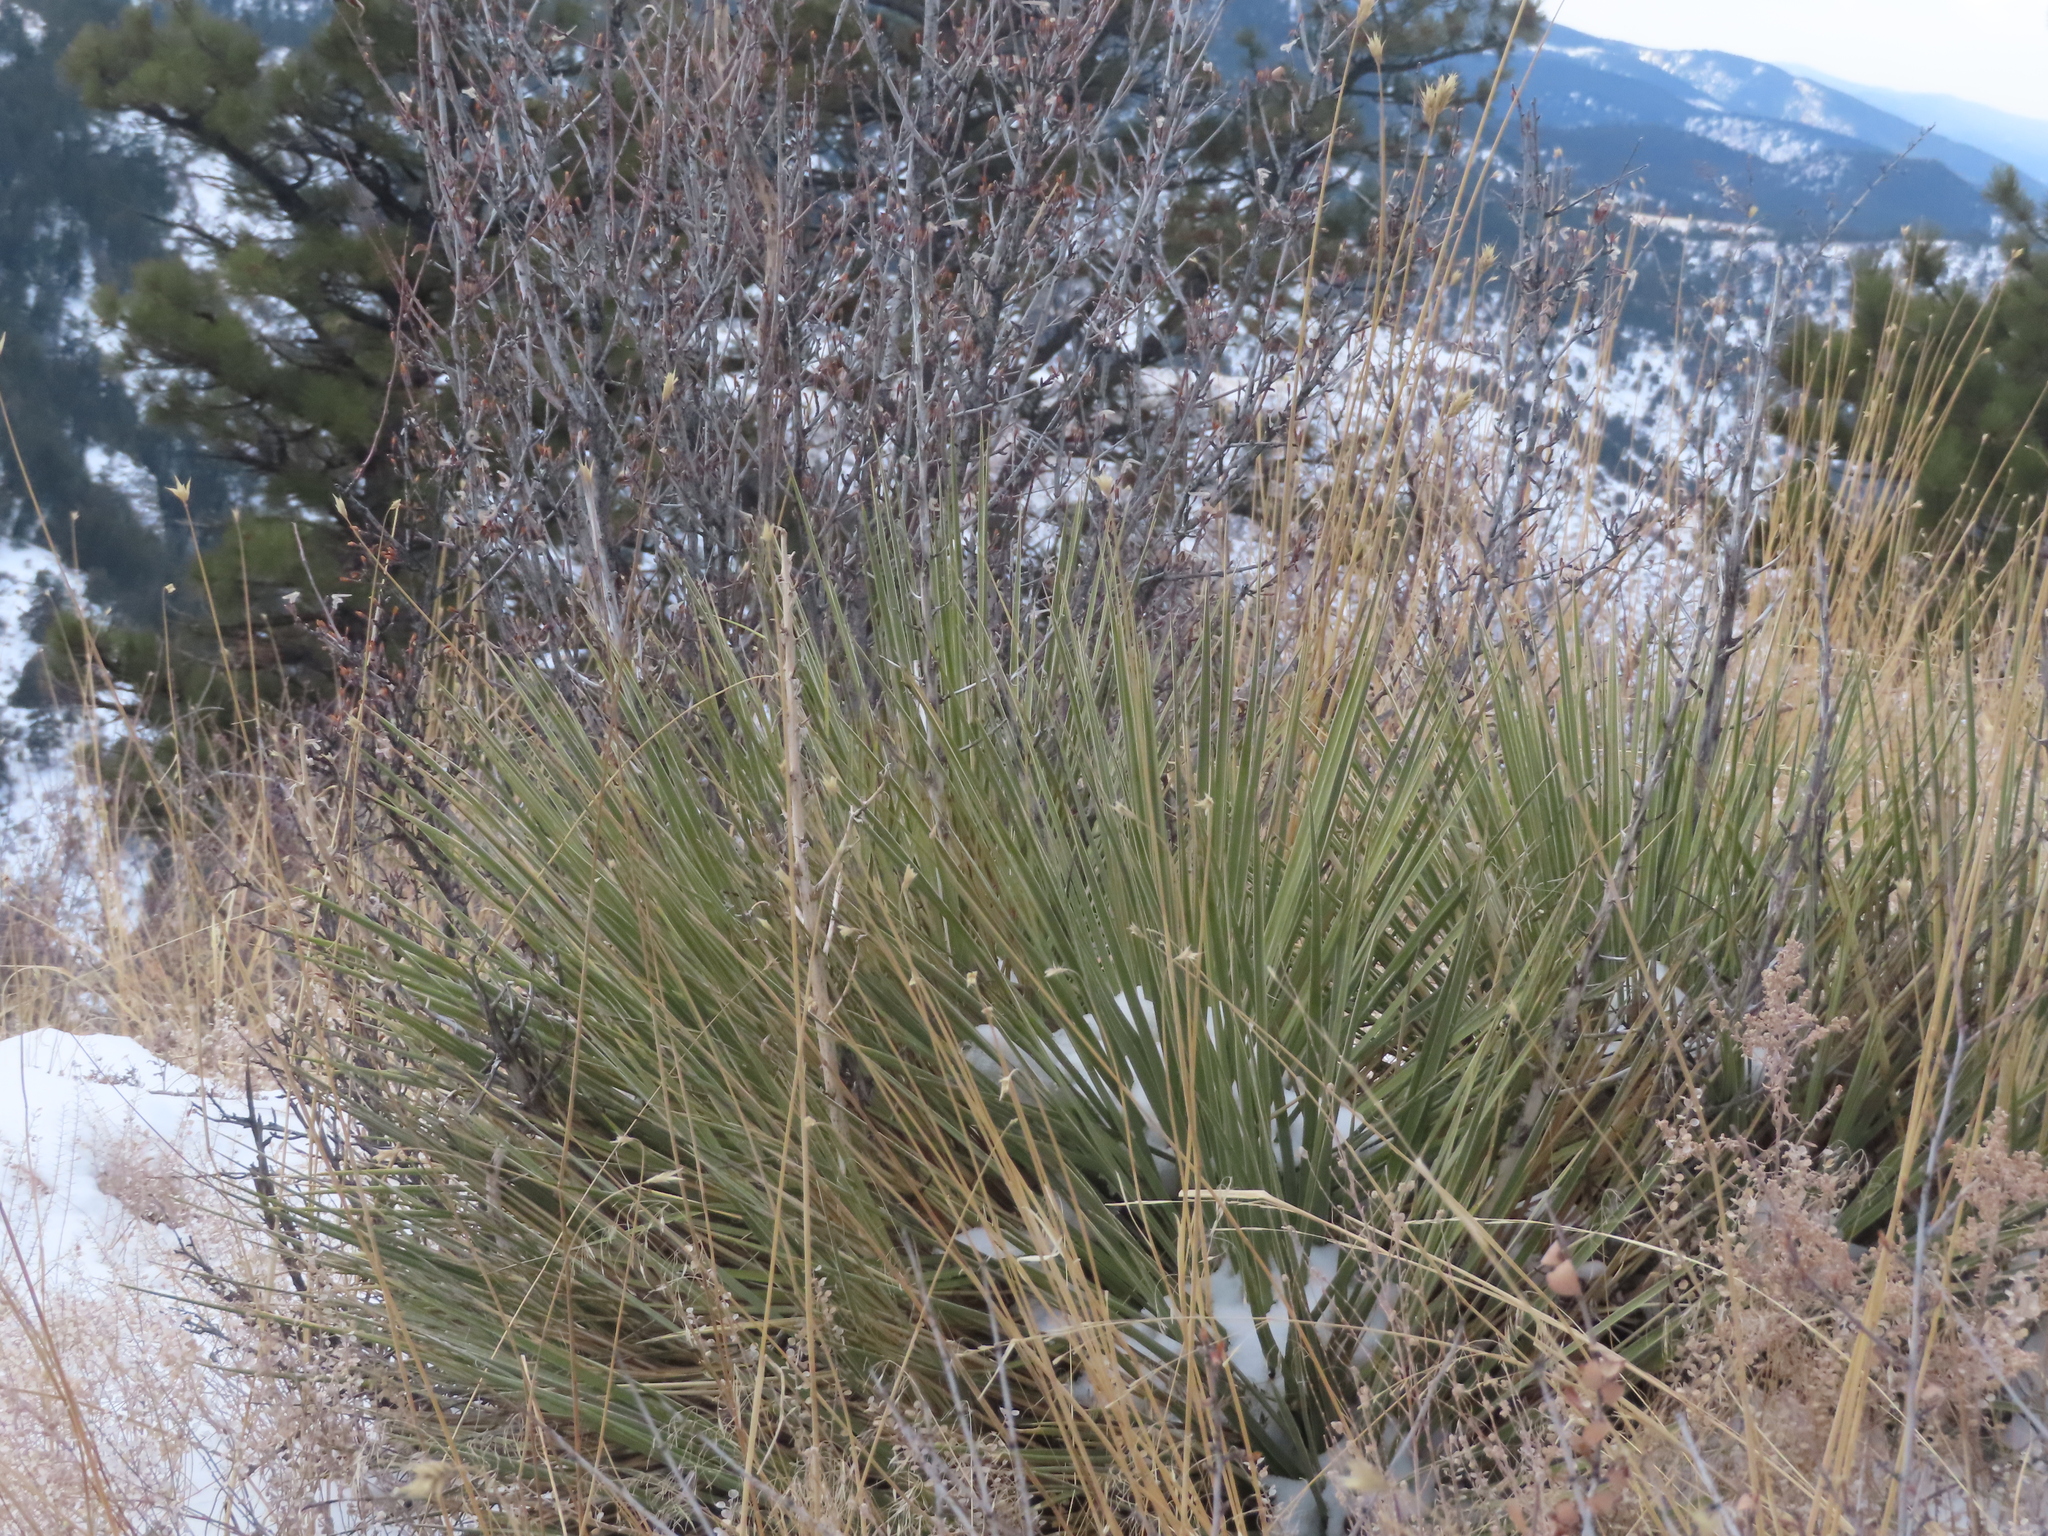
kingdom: Plantae
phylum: Tracheophyta
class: Liliopsida
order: Asparagales
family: Asparagaceae
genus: Yucca
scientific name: Yucca glauca
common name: Great plains yucca
